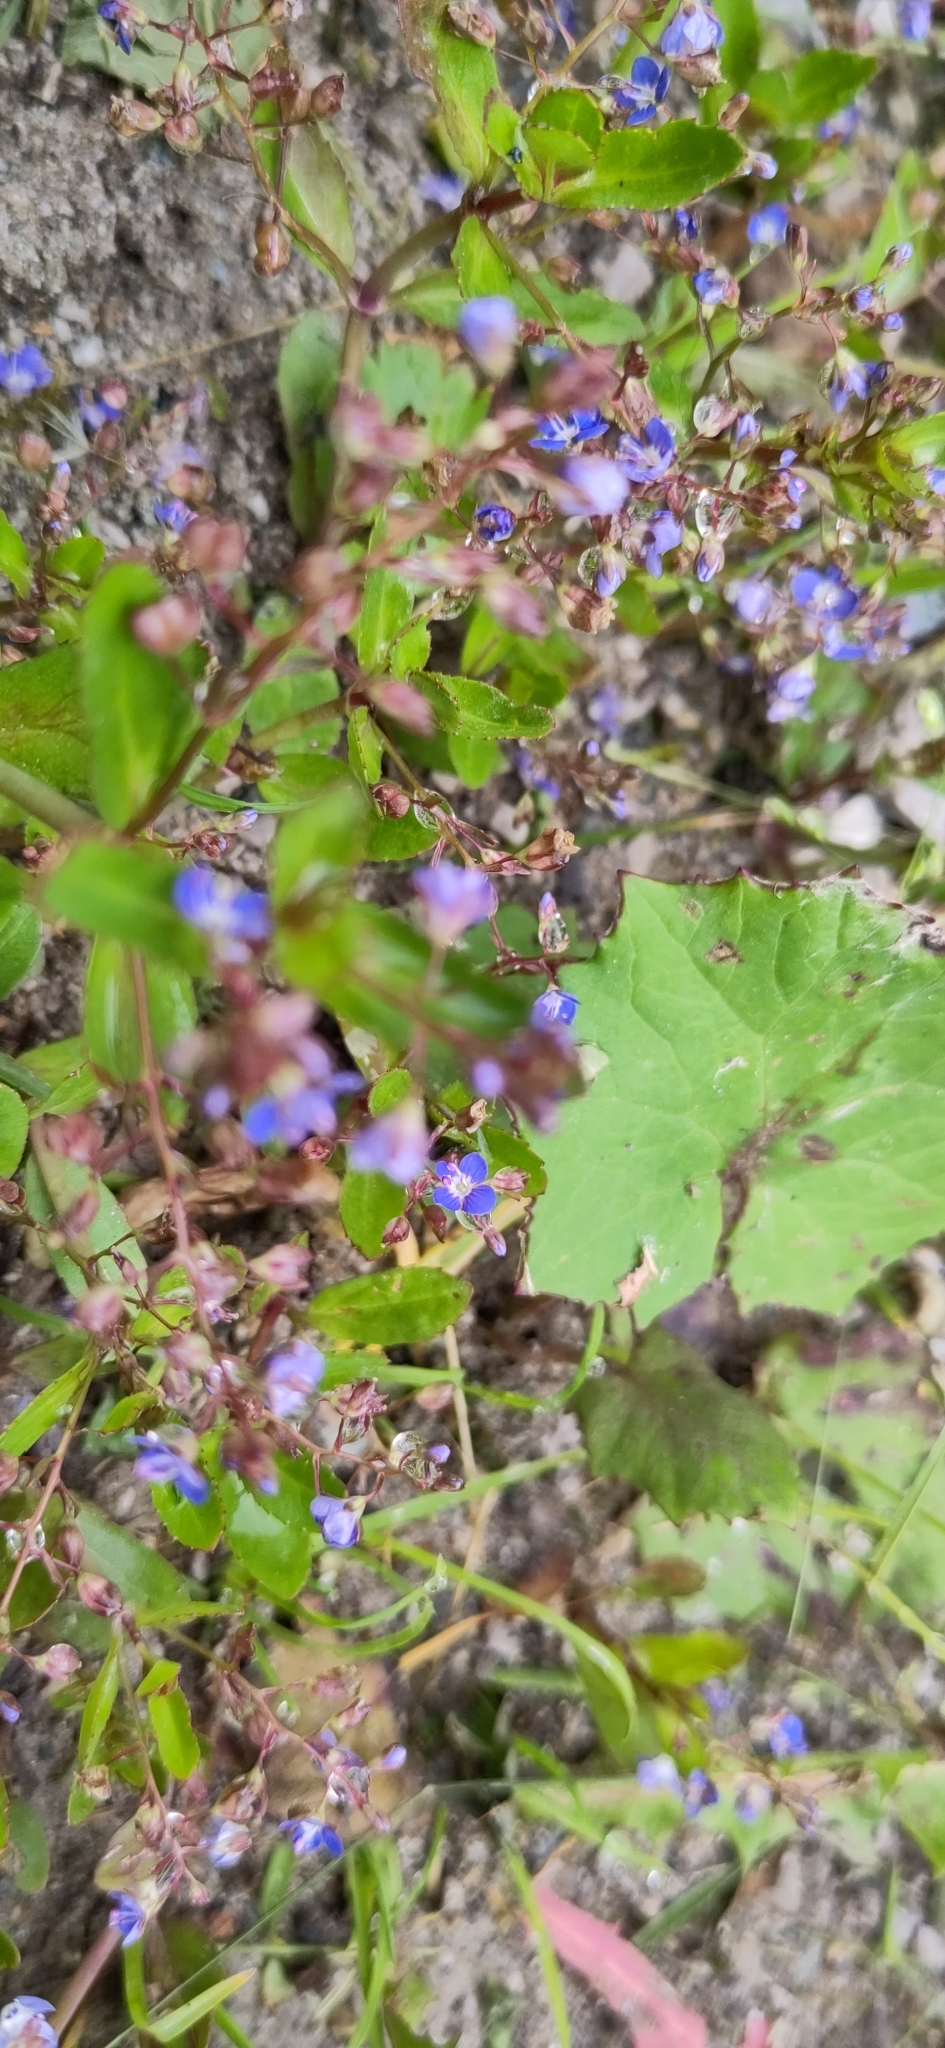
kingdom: Plantae
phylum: Tracheophyta
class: Magnoliopsida
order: Lamiales
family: Plantaginaceae
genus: Veronica
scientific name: Veronica beccabunga
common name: Brooklime
